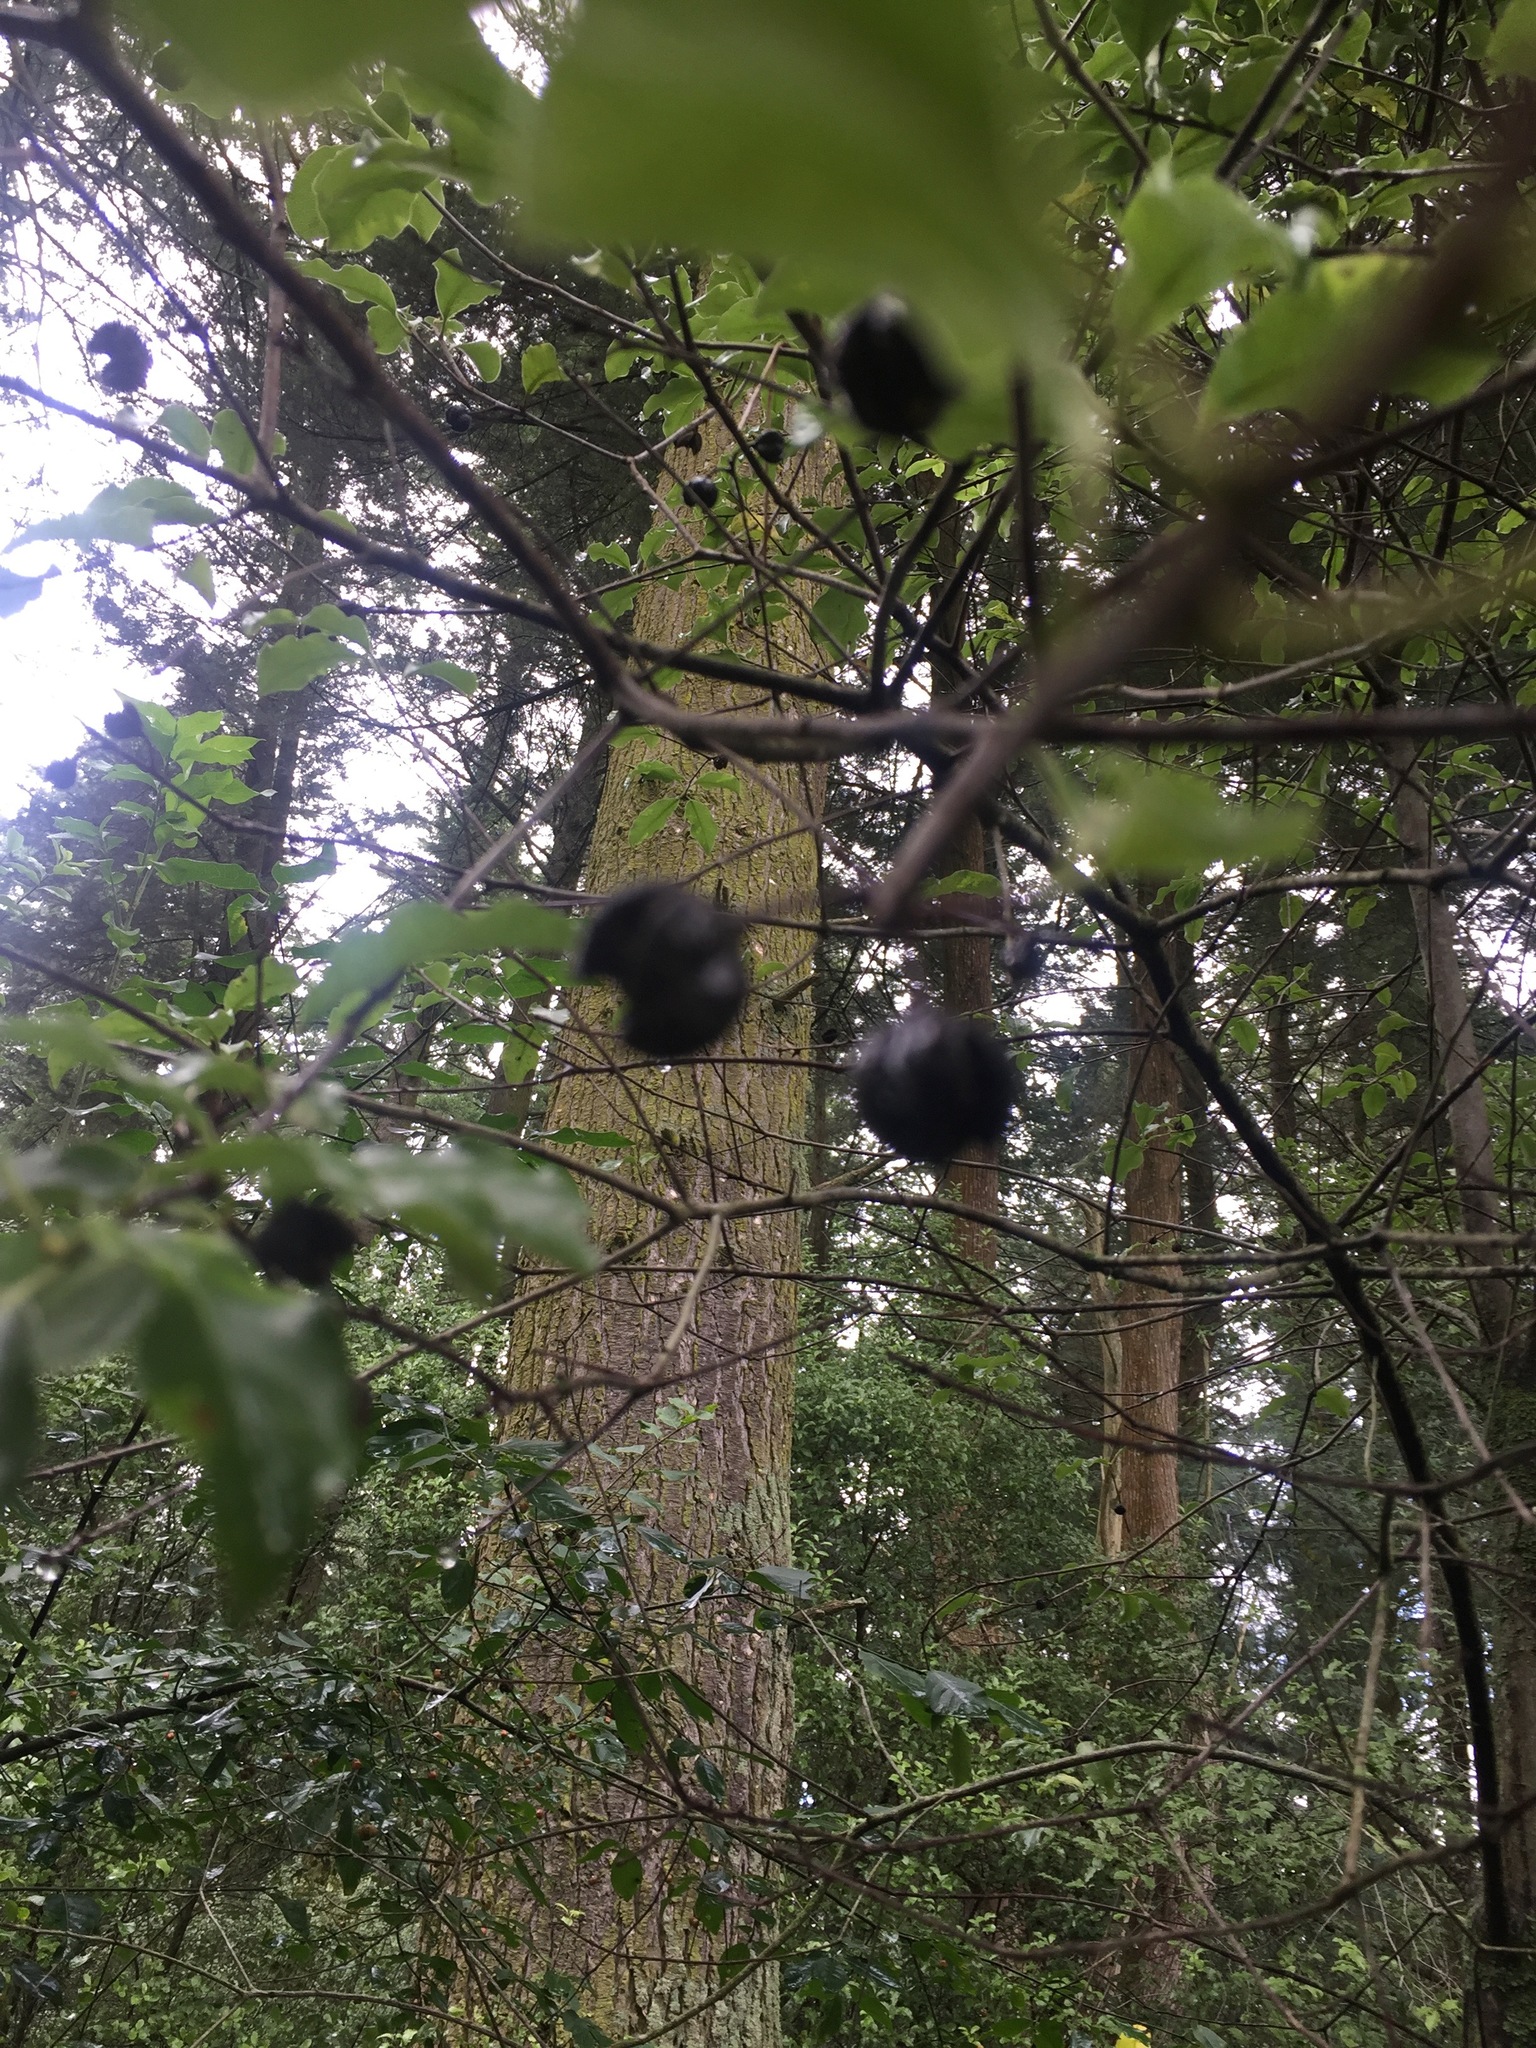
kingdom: Plantae
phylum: Tracheophyta
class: Magnoliopsida
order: Apiales
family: Pittosporaceae
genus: Pittosporum
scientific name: Pittosporum tenuifolium
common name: Kohuhu
